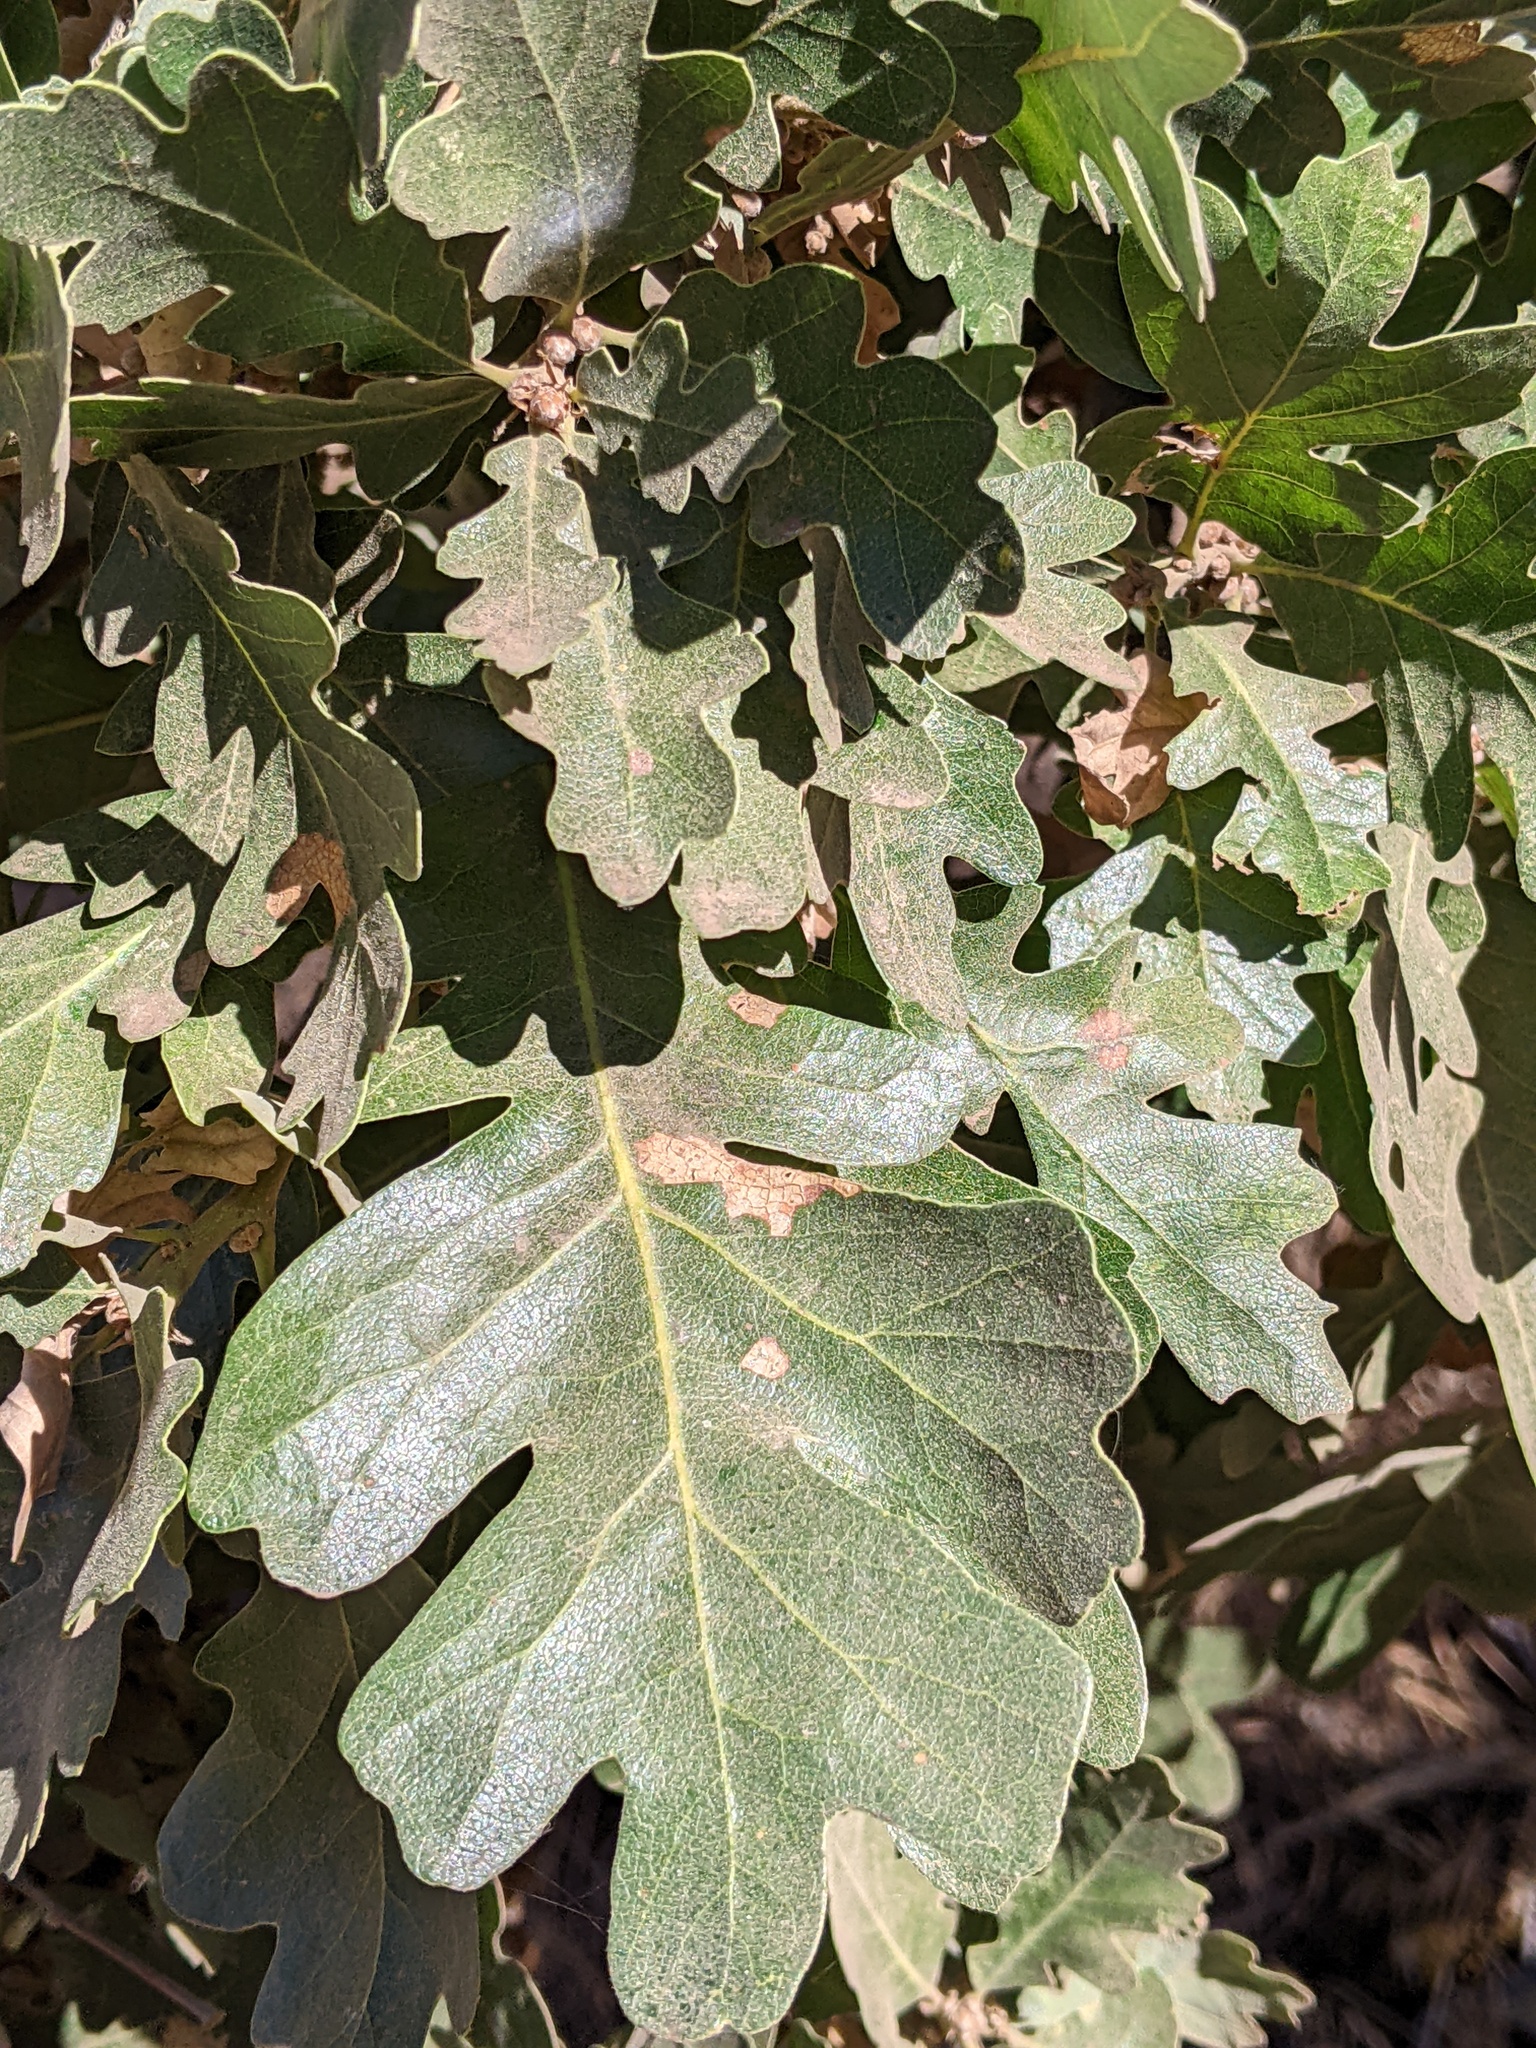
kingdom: Plantae
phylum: Tracheophyta
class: Magnoliopsida
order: Fagales
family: Fagaceae
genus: Quercus
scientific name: Quercus lobata
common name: Valley oak
